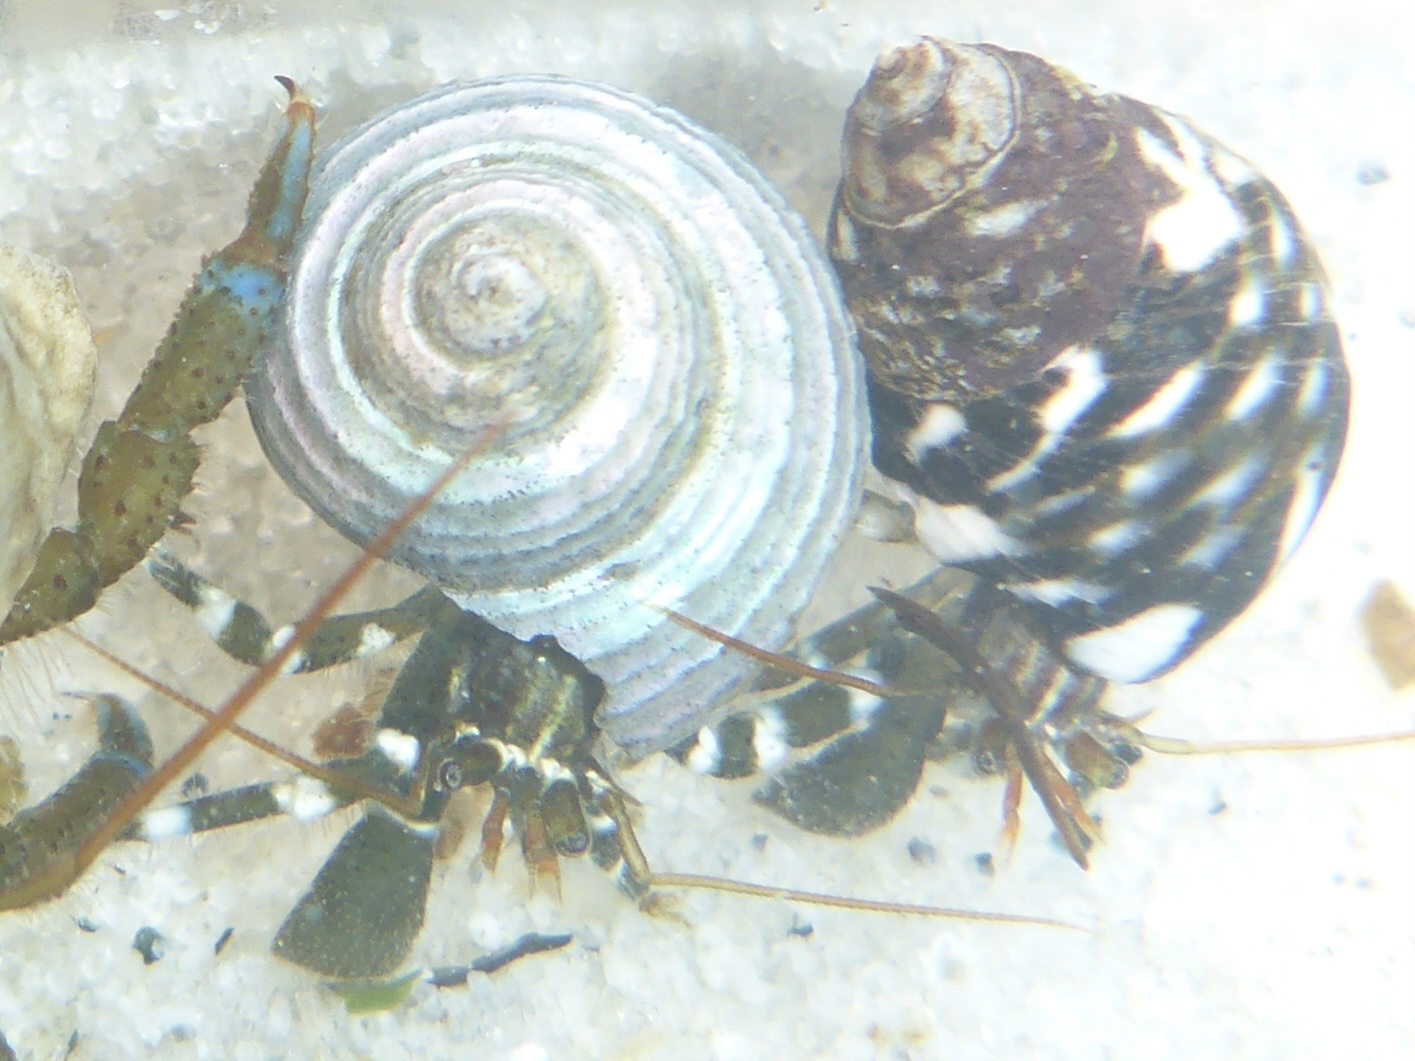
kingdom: Animalia
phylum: Arthropoda
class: Malacostraca
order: Decapoda
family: Paguridae
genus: Pagurus
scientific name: Pagurus samuelis
